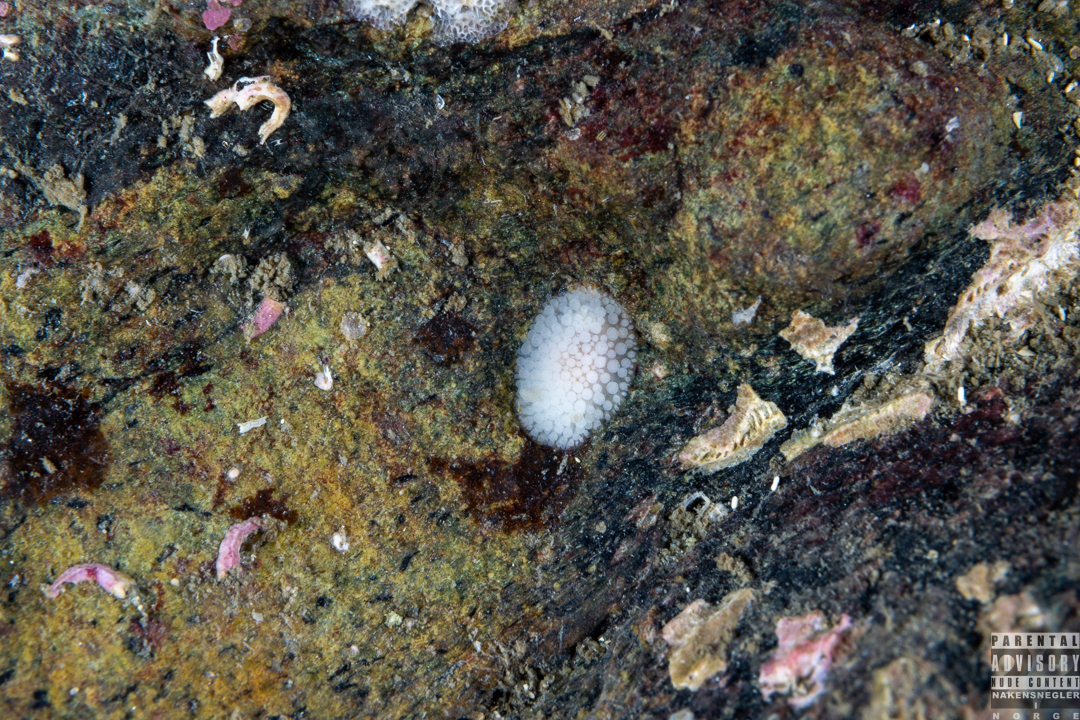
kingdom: Animalia
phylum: Mollusca
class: Gastropoda
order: Nudibranchia
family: Onchidorididae
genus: Onchidoris
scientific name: Onchidoris muricata
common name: Rough doris
